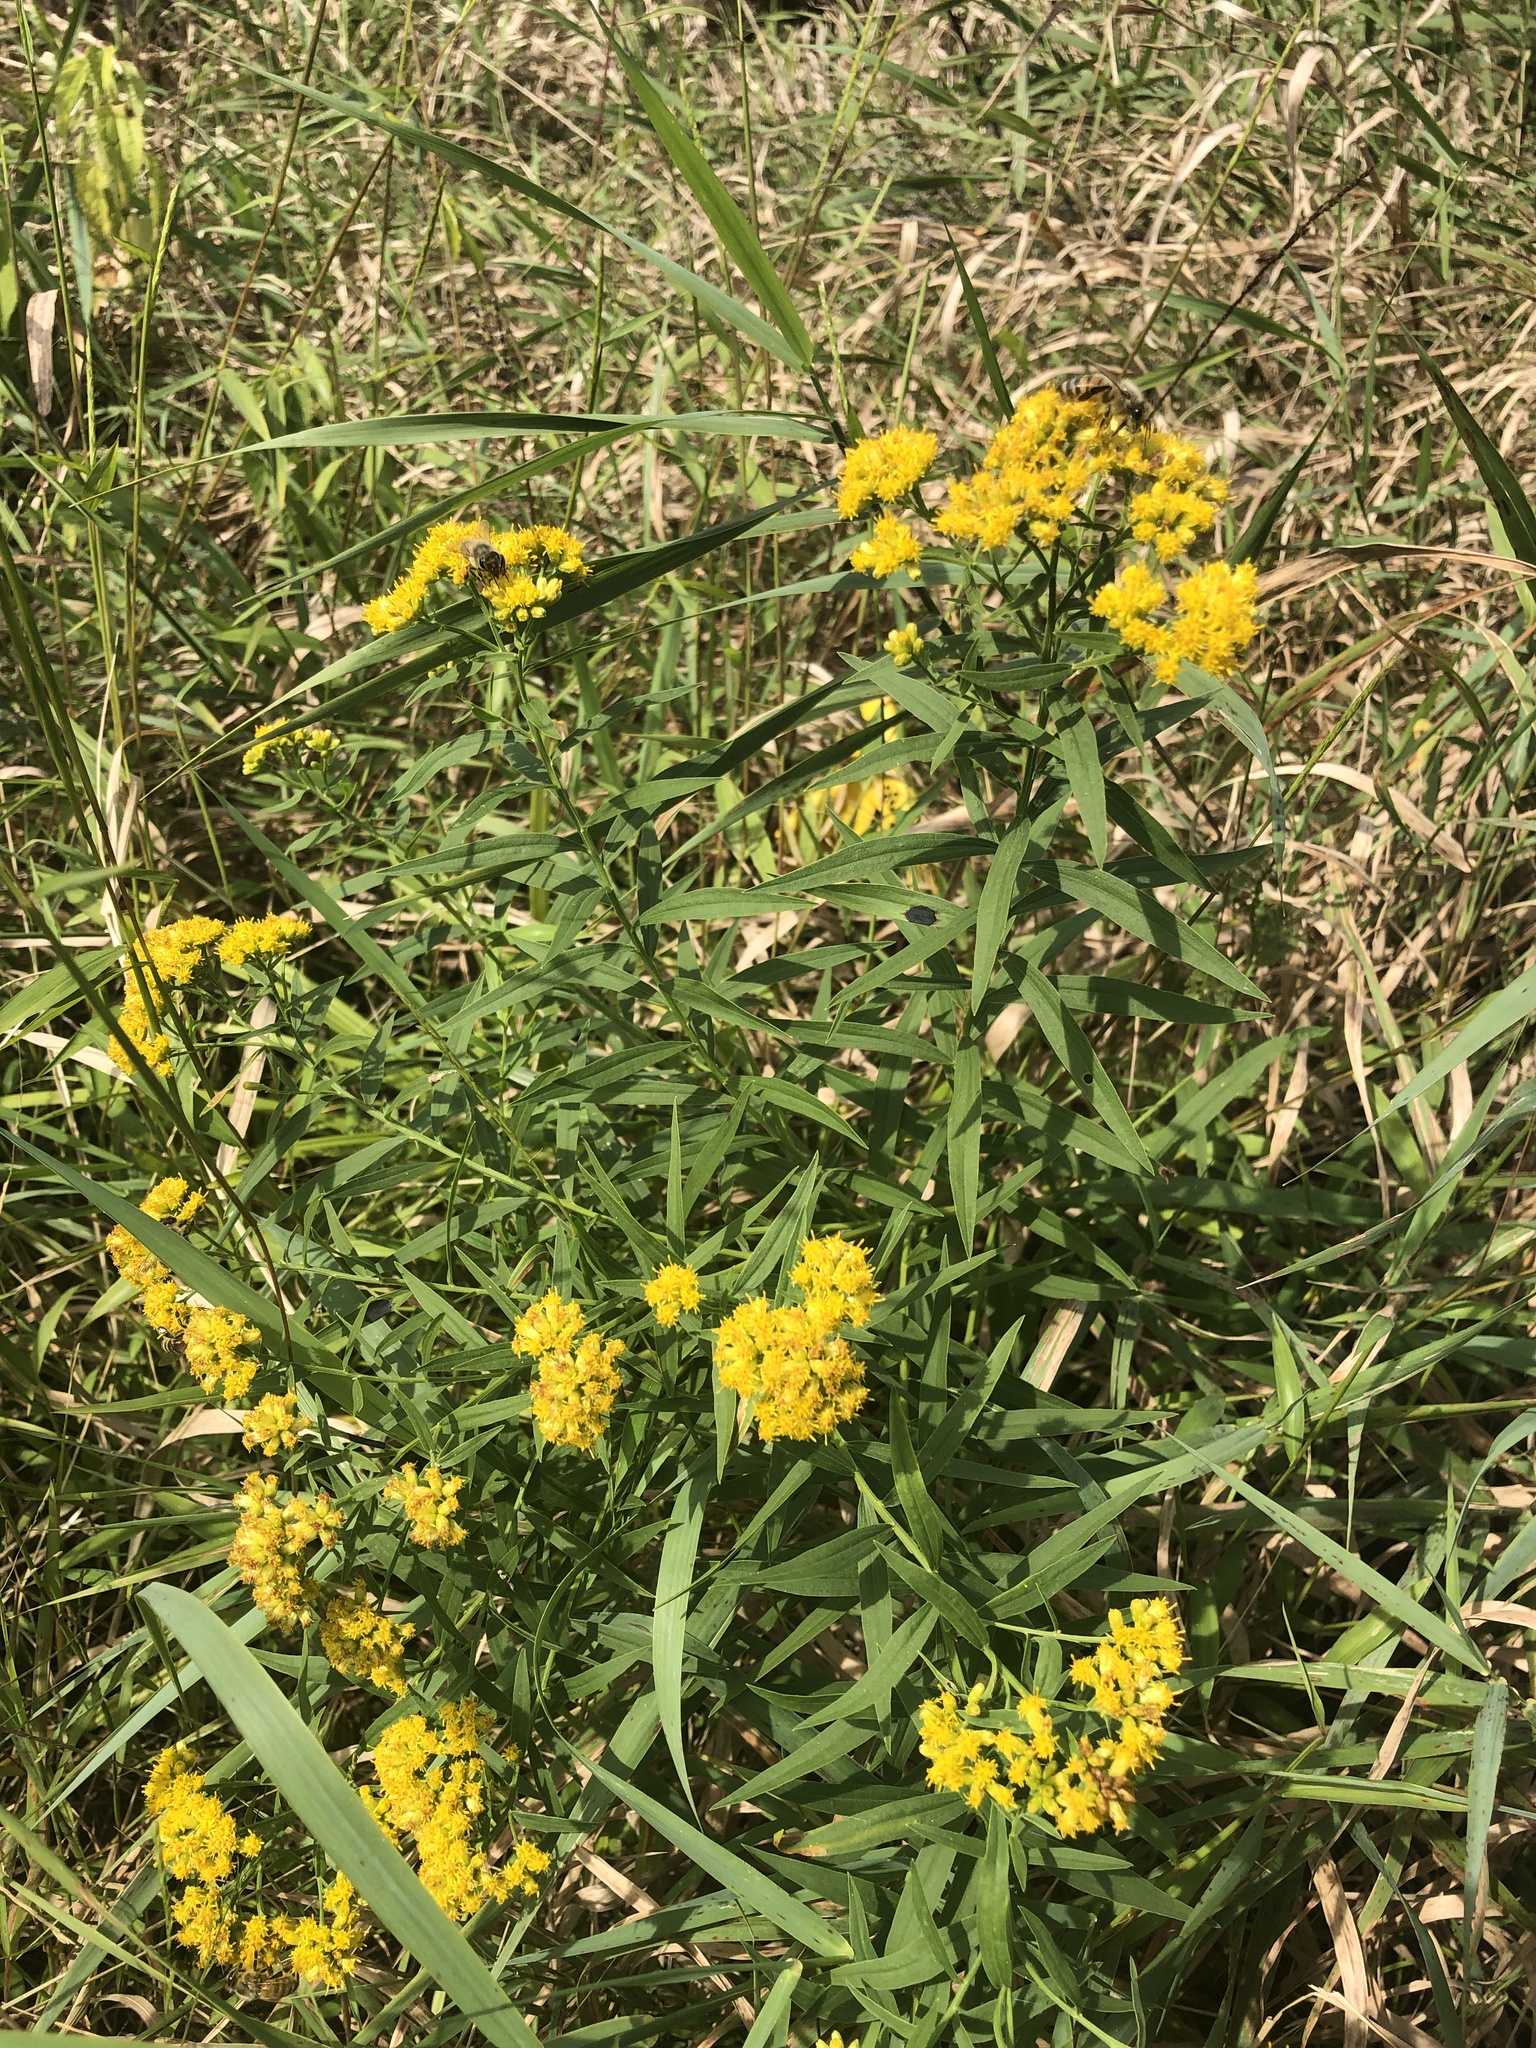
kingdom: Plantae
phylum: Tracheophyta
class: Magnoliopsida
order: Asterales
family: Asteraceae
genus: Euthamia
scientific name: Euthamia graminifolia
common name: Common goldentop
